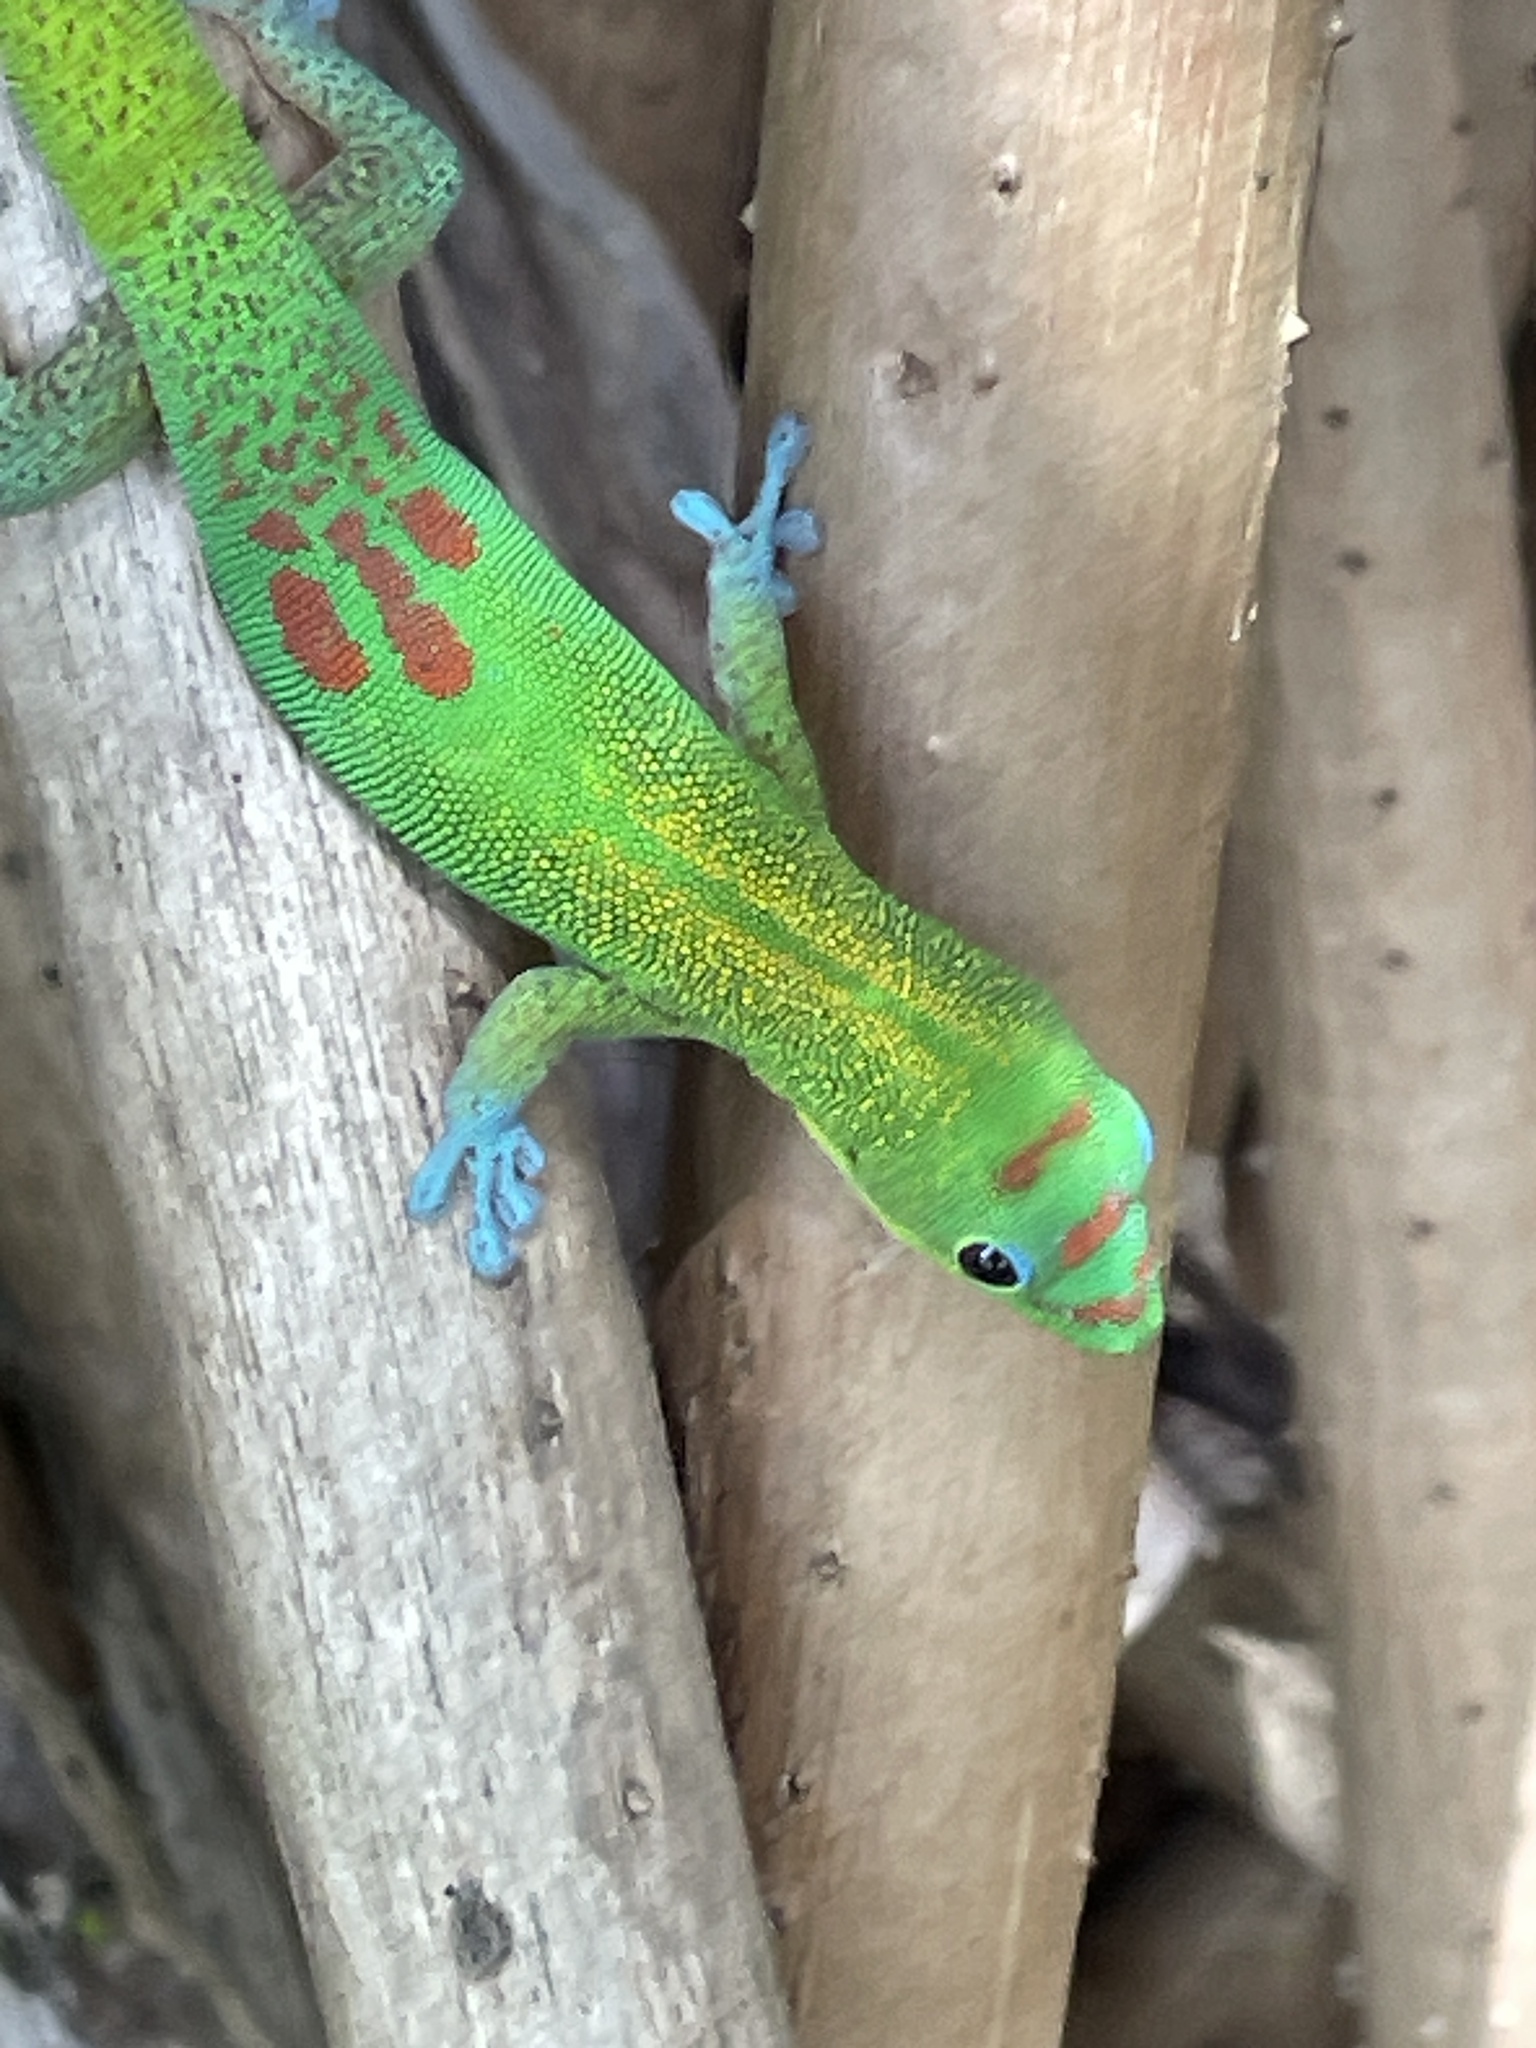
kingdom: Animalia
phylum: Chordata
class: Squamata
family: Gekkonidae
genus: Phelsuma
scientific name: Phelsuma laticauda
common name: Gold dust day gecko
